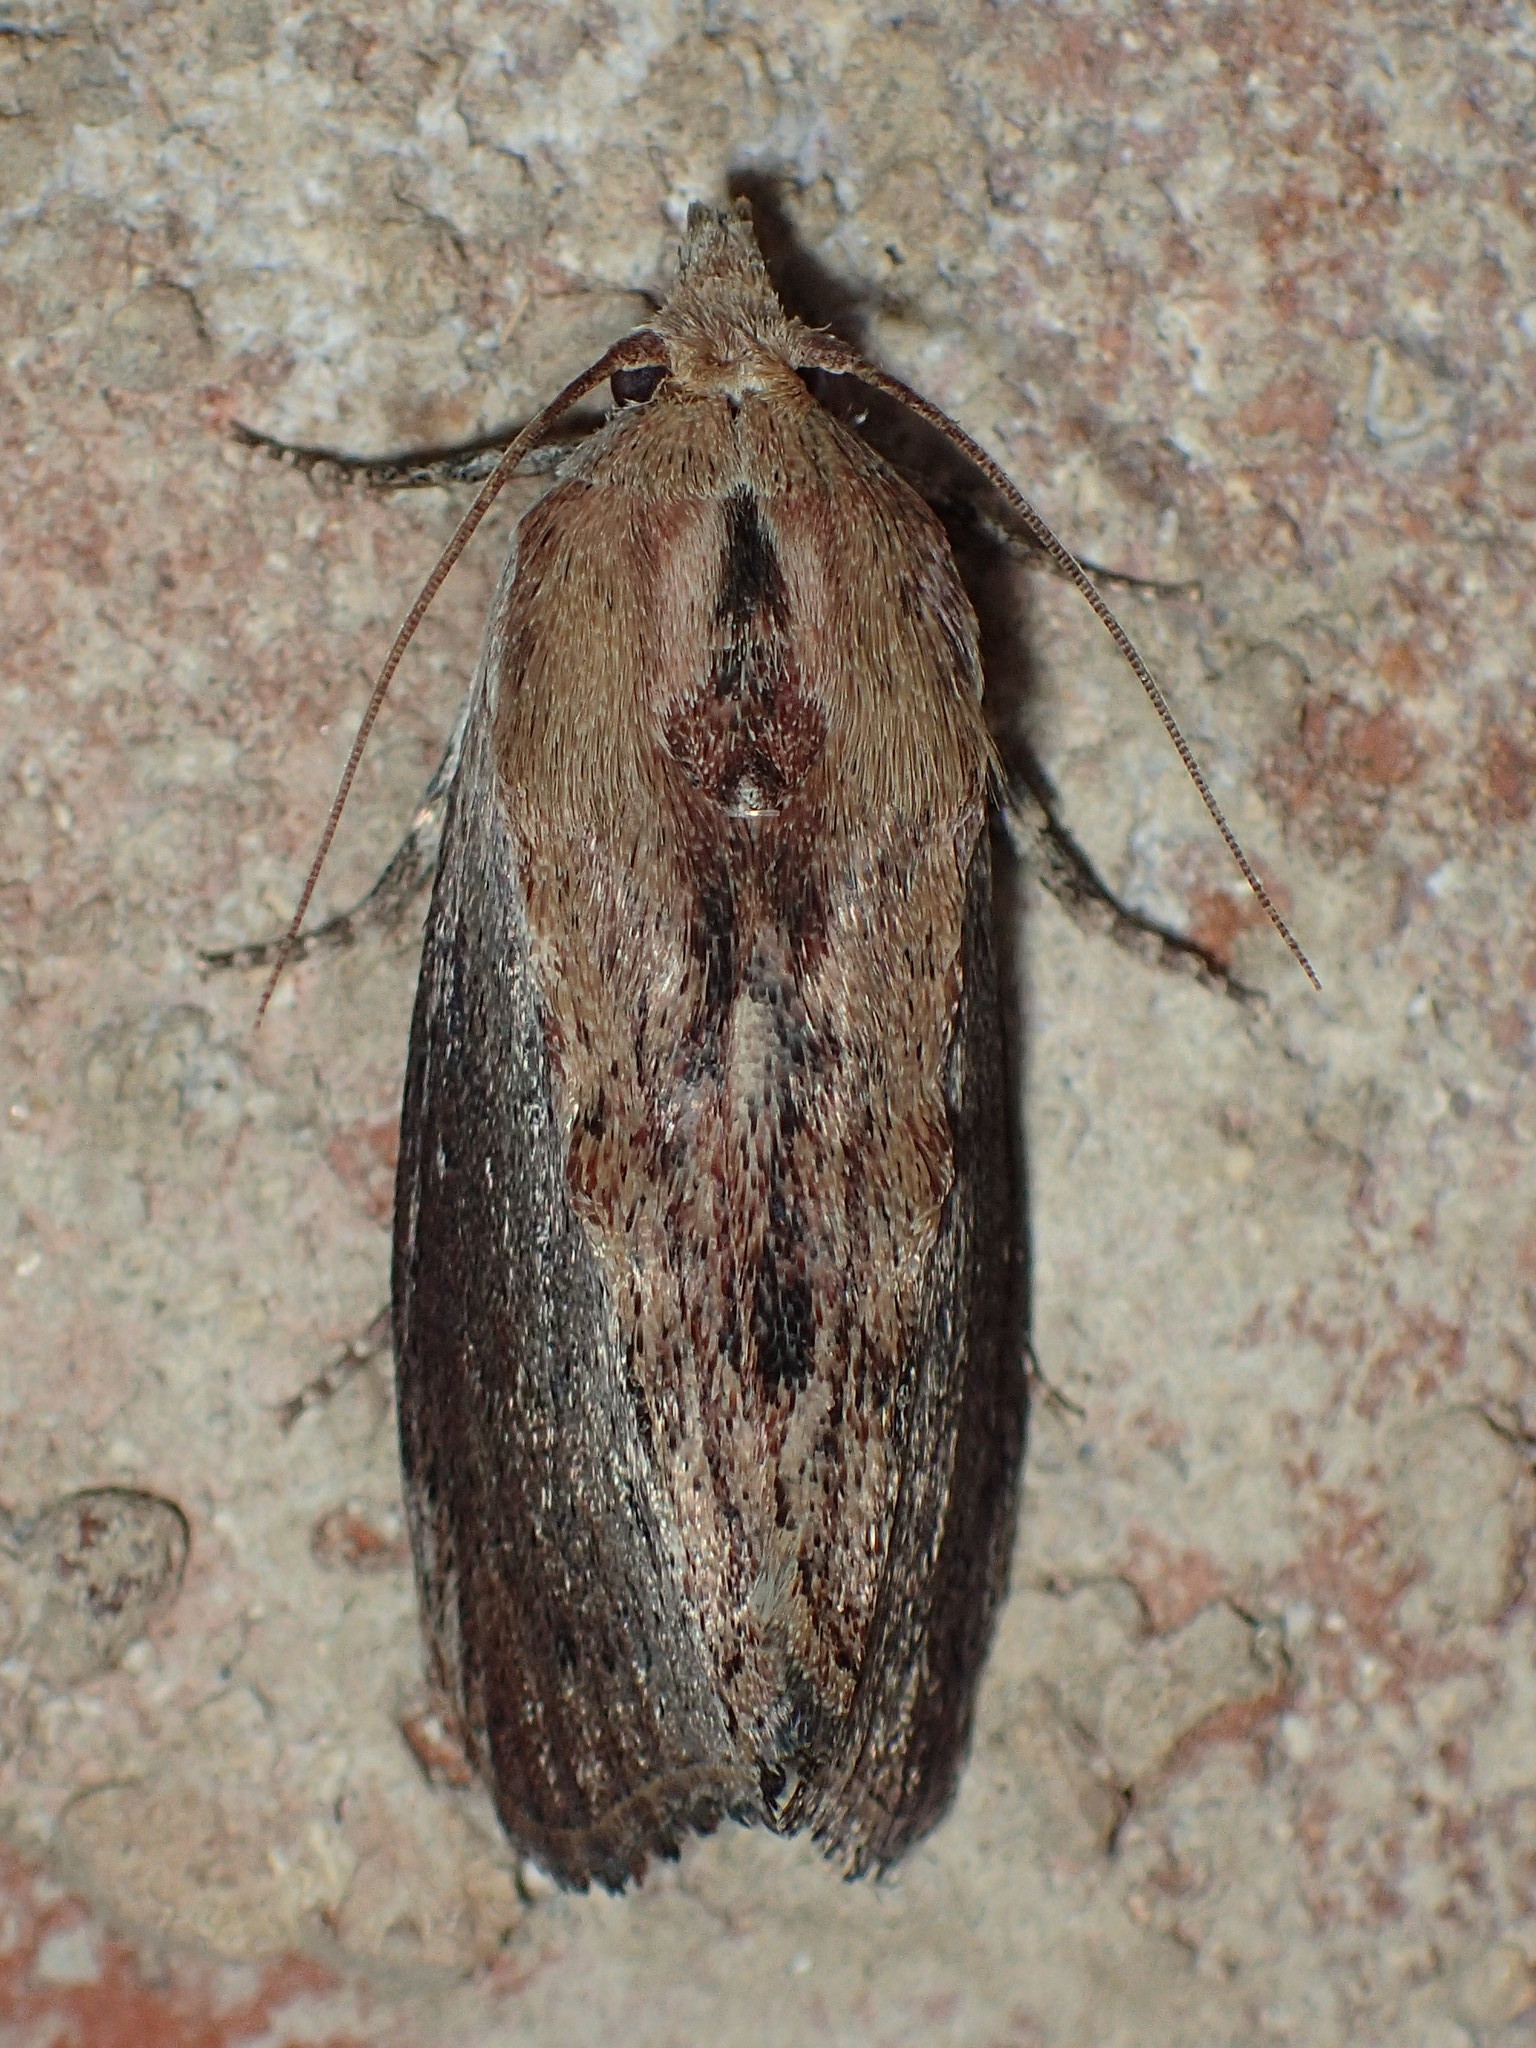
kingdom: Animalia
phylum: Arthropoda
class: Insecta
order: Lepidoptera
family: Pyralidae
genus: Galleria
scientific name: Galleria mellonella
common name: Greater wax moth
